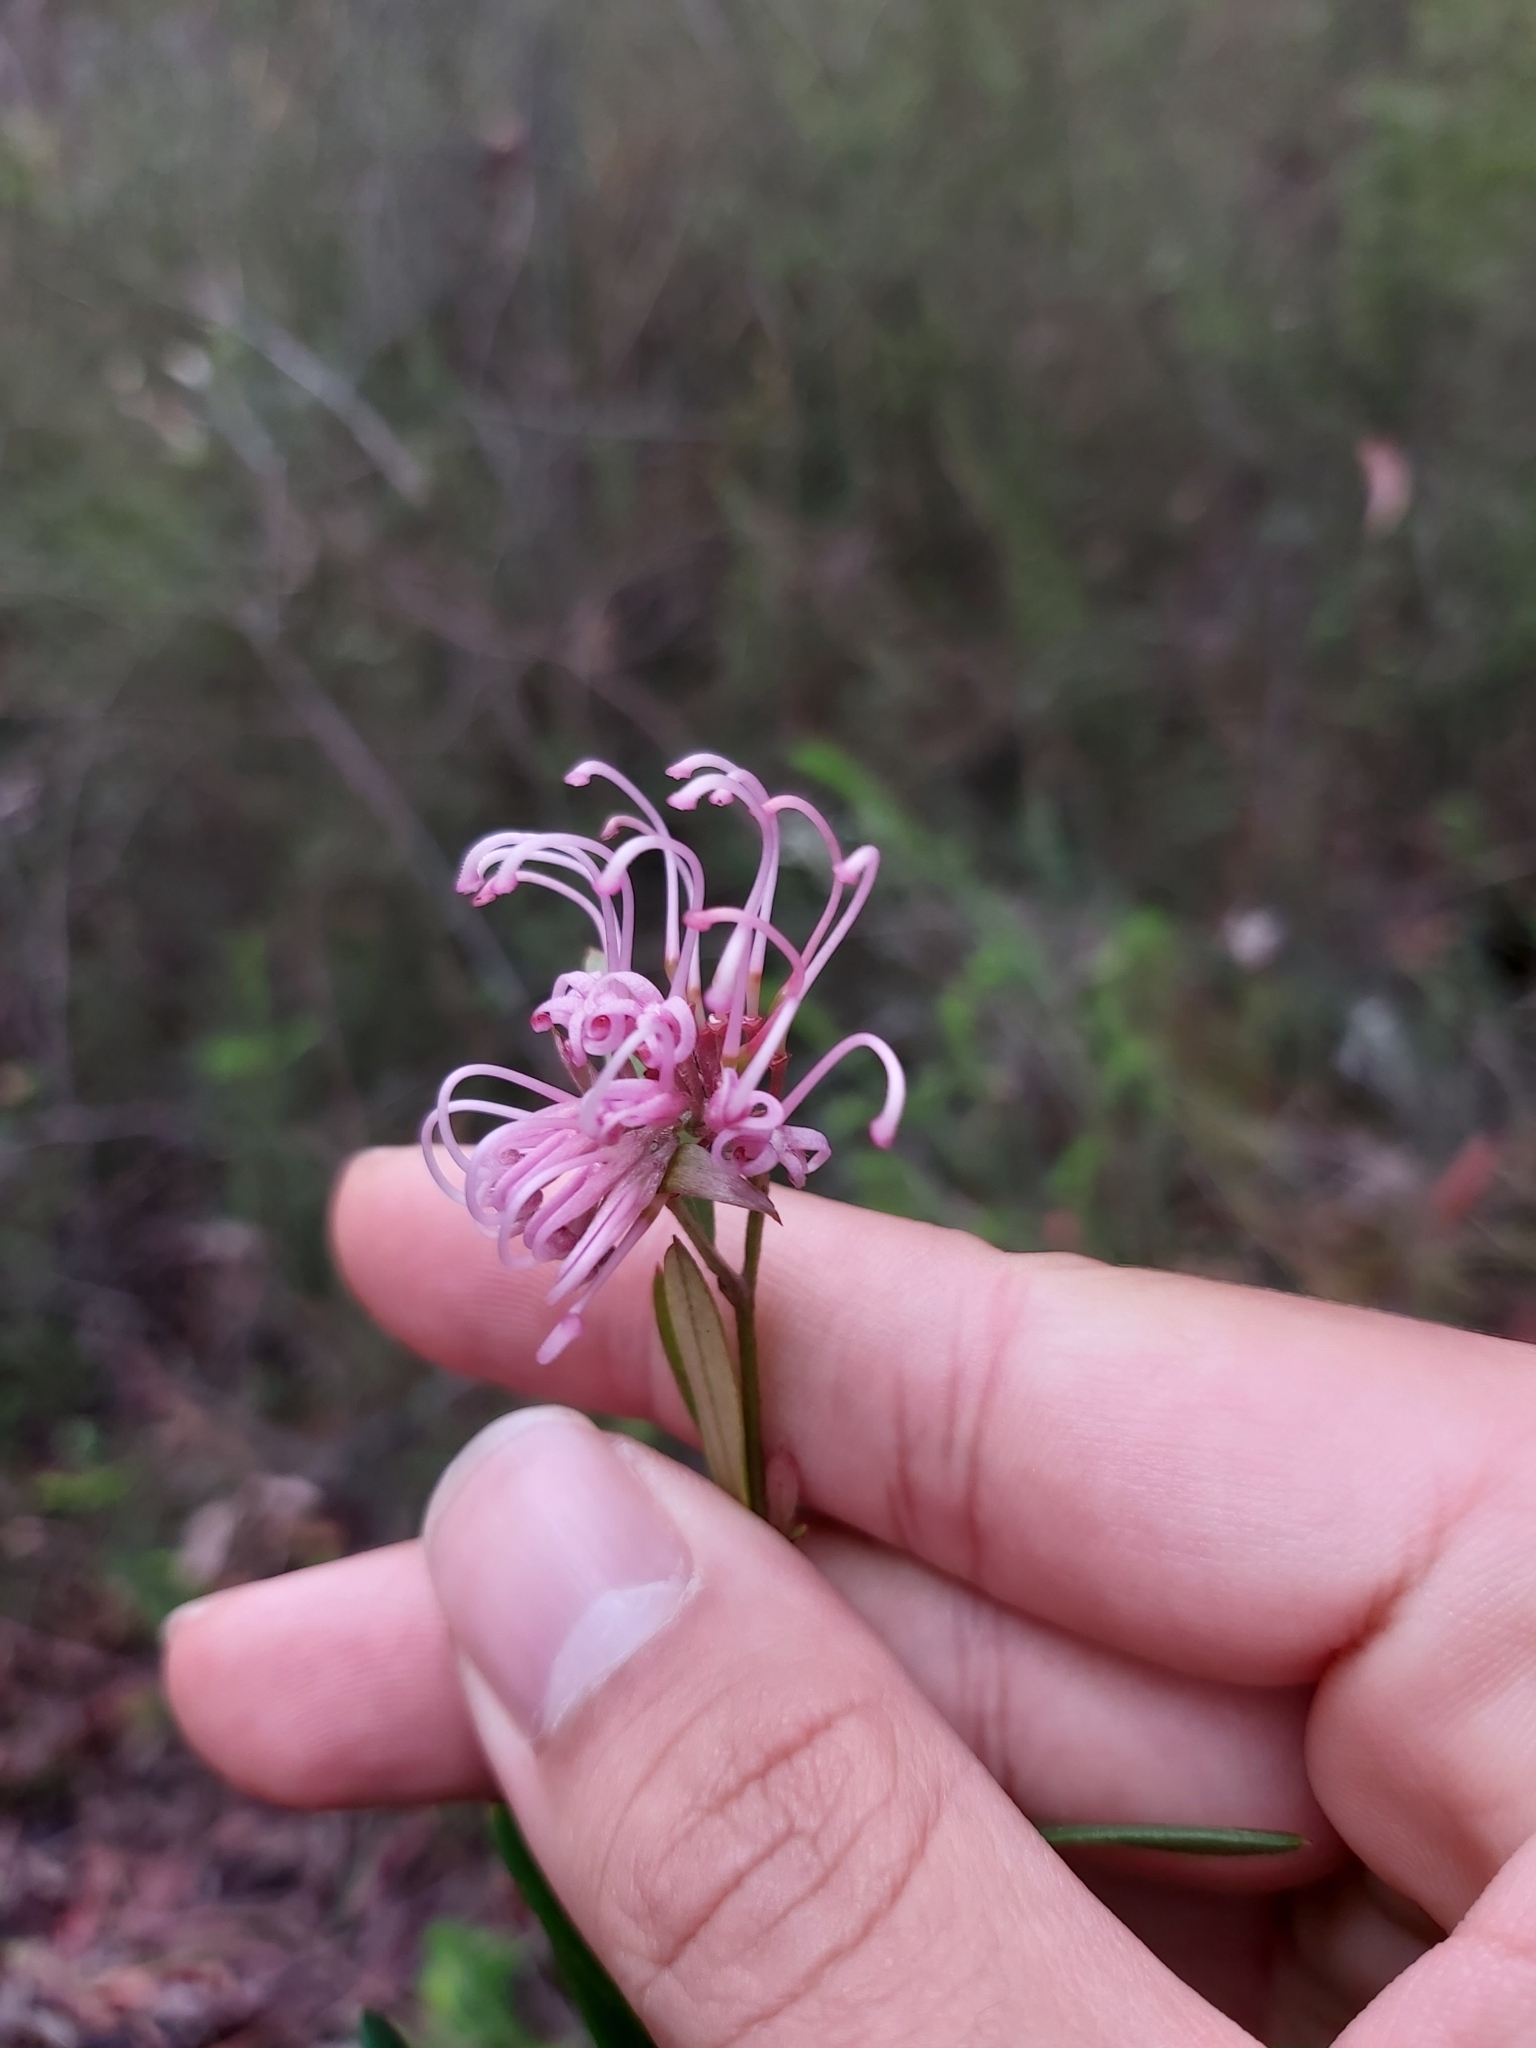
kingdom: Plantae
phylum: Tracheophyta
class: Magnoliopsida
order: Proteales
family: Proteaceae
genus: Grevillea
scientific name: Grevillea sericea
